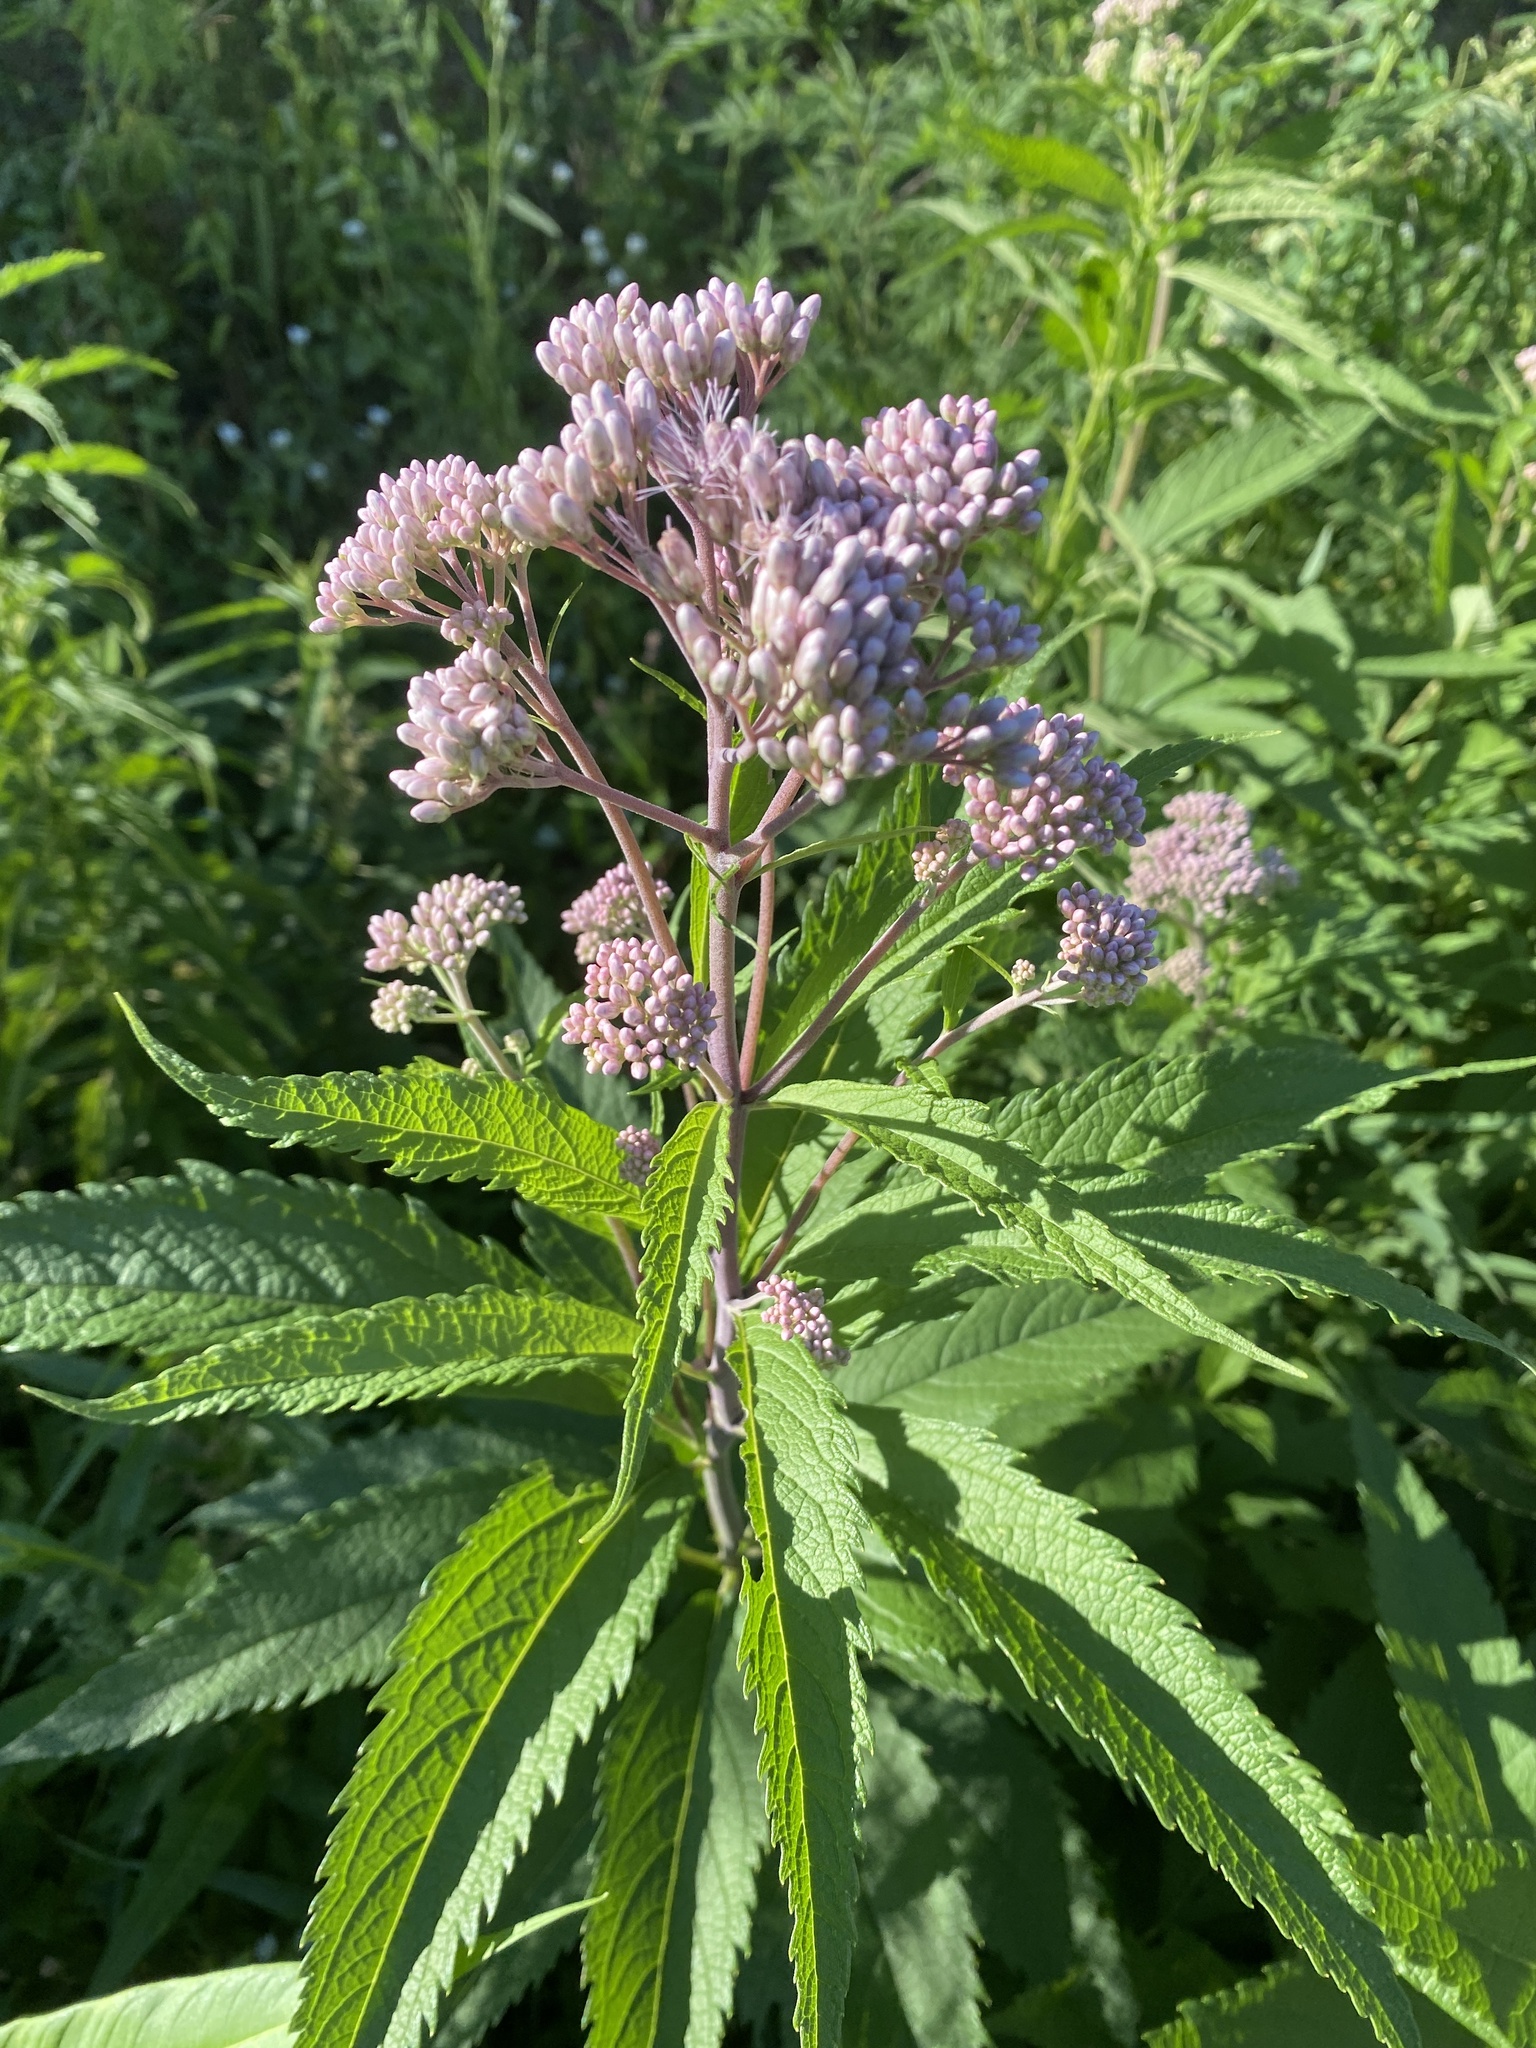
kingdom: Plantae
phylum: Tracheophyta
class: Magnoliopsida
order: Asterales
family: Asteraceae
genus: Eutrochium
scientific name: Eutrochium maculatum
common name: Spotted joe pye weed
